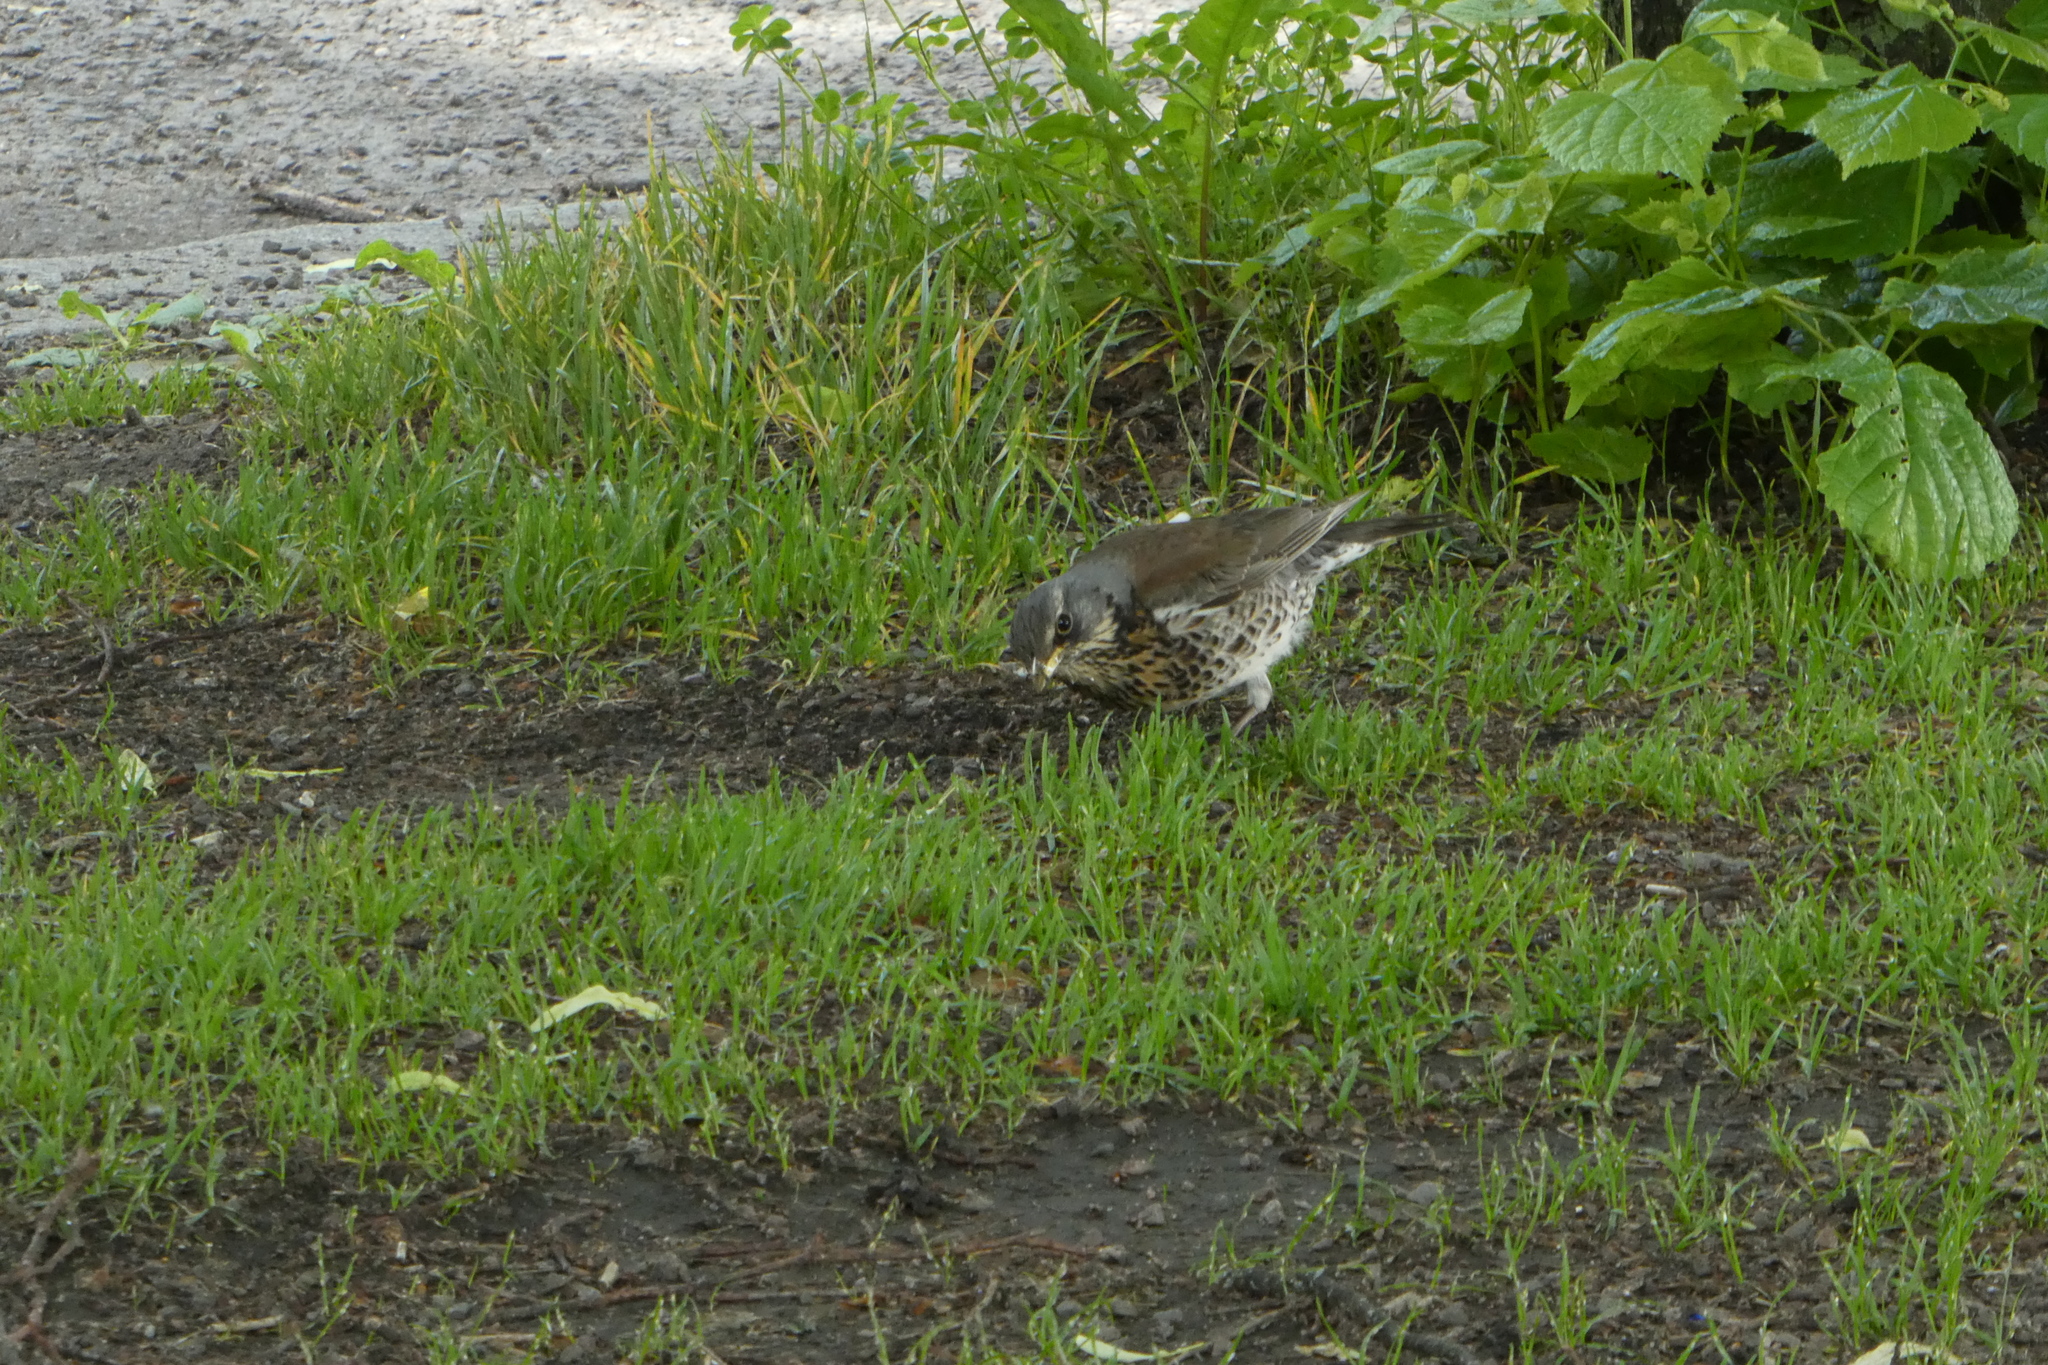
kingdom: Animalia
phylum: Chordata
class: Aves
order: Passeriformes
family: Turdidae
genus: Turdus
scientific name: Turdus pilaris
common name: Fieldfare
